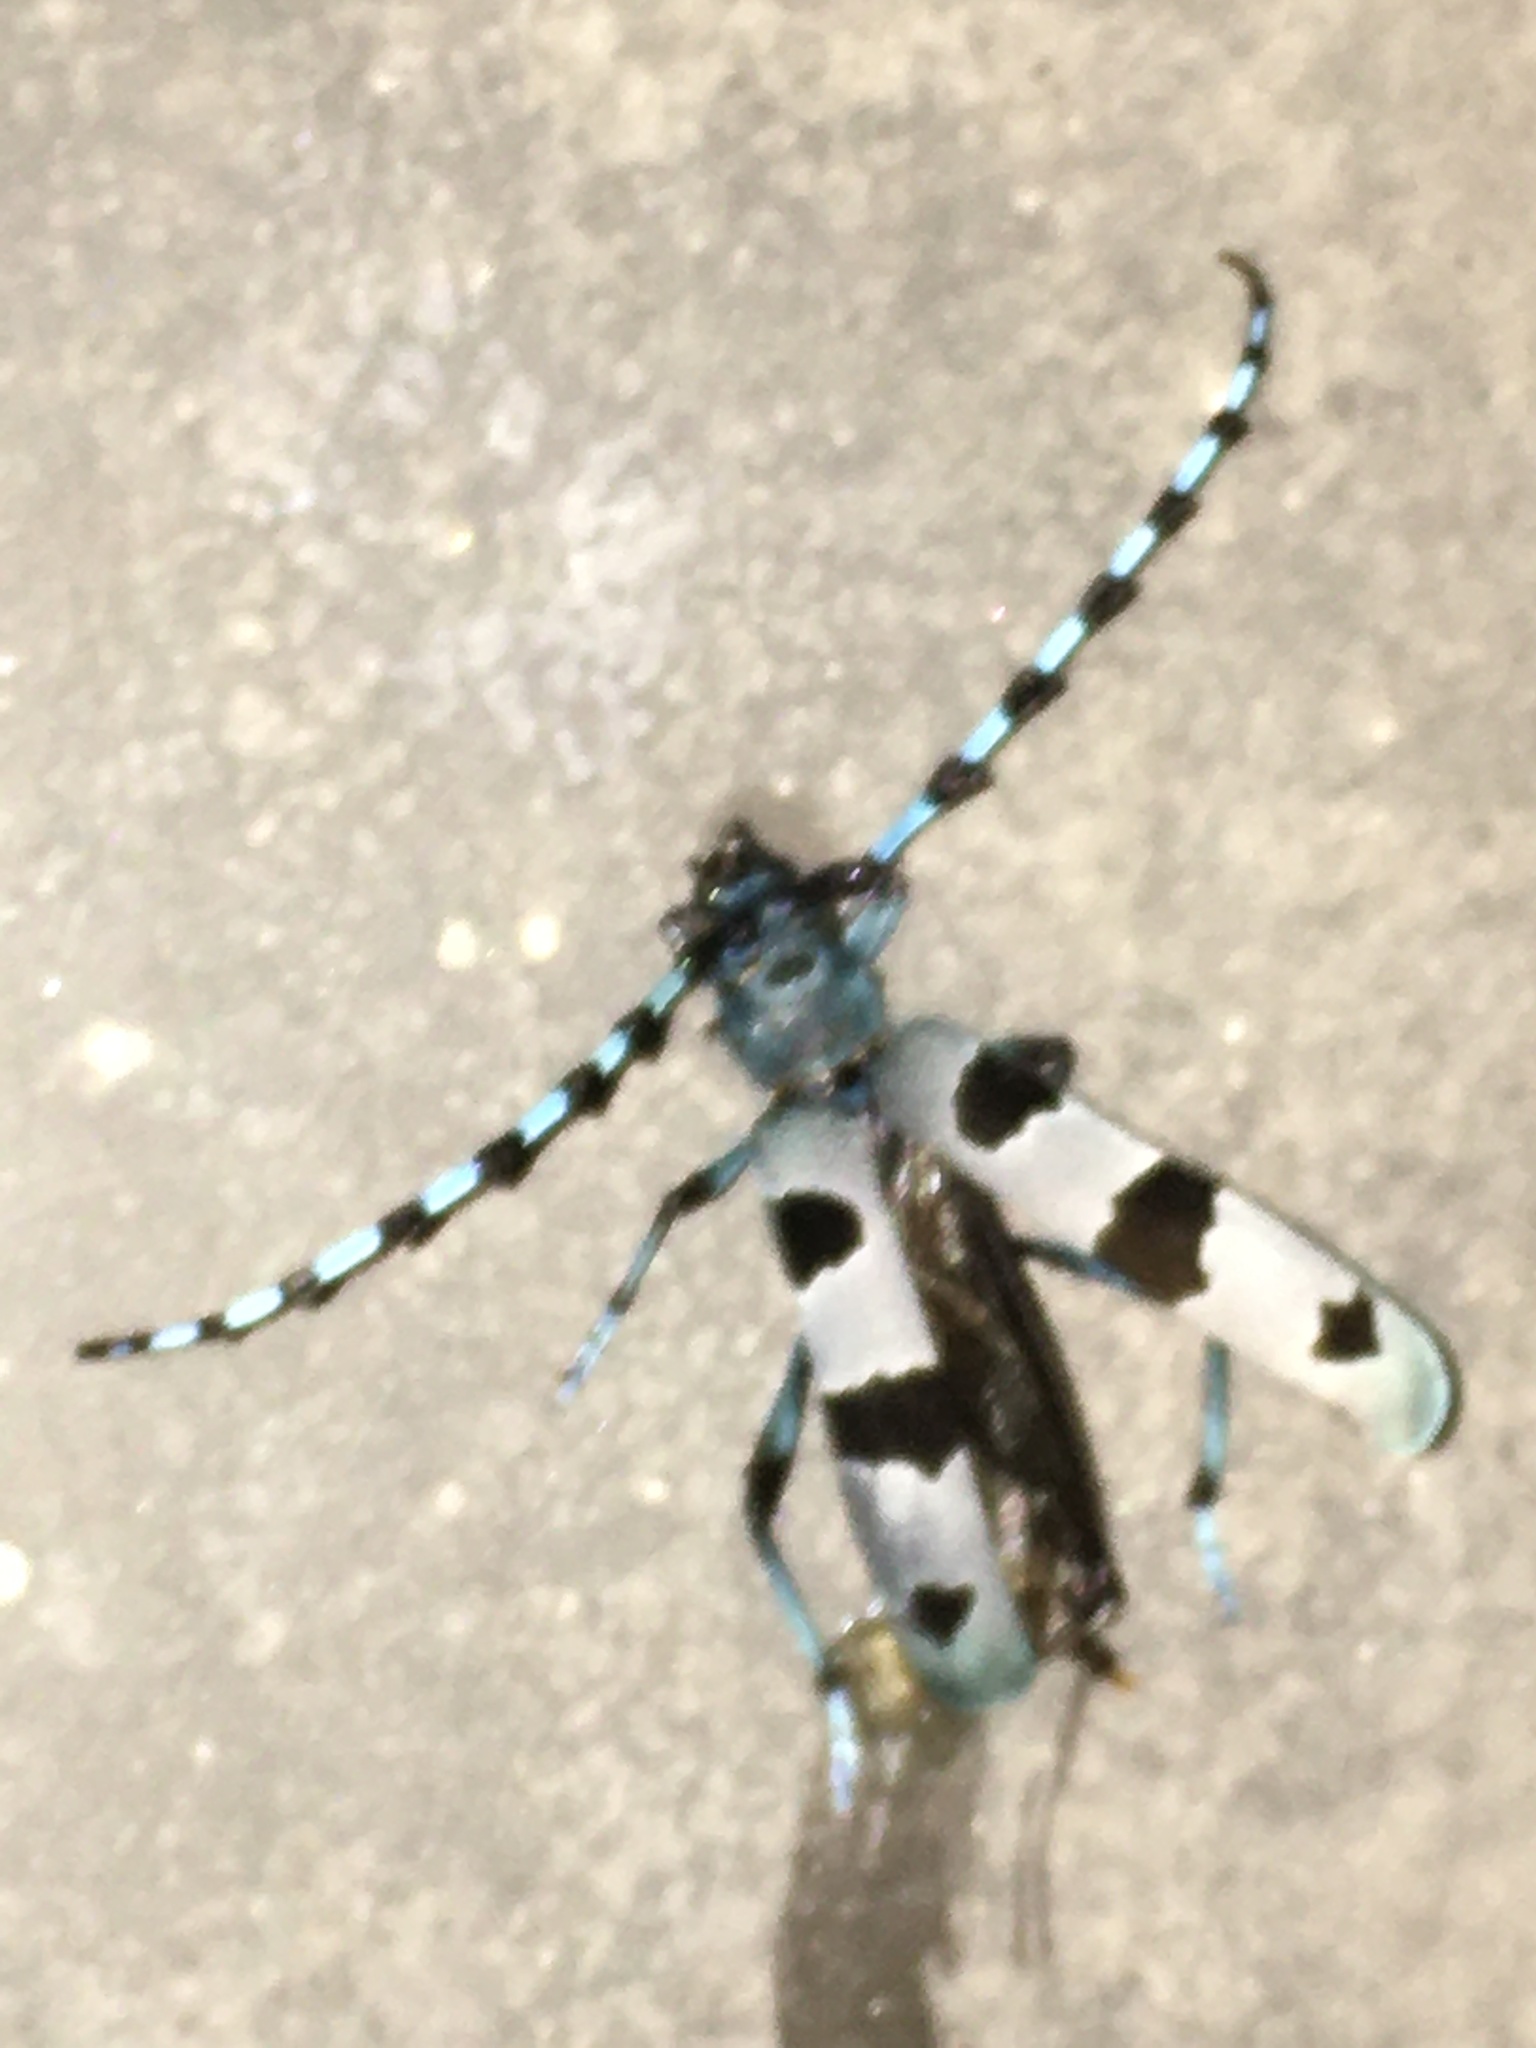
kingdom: Animalia
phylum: Arthropoda
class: Insecta
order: Coleoptera
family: Cerambycidae
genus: Rosalia
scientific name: Rosalia alpina
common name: Rosalia longicorn
